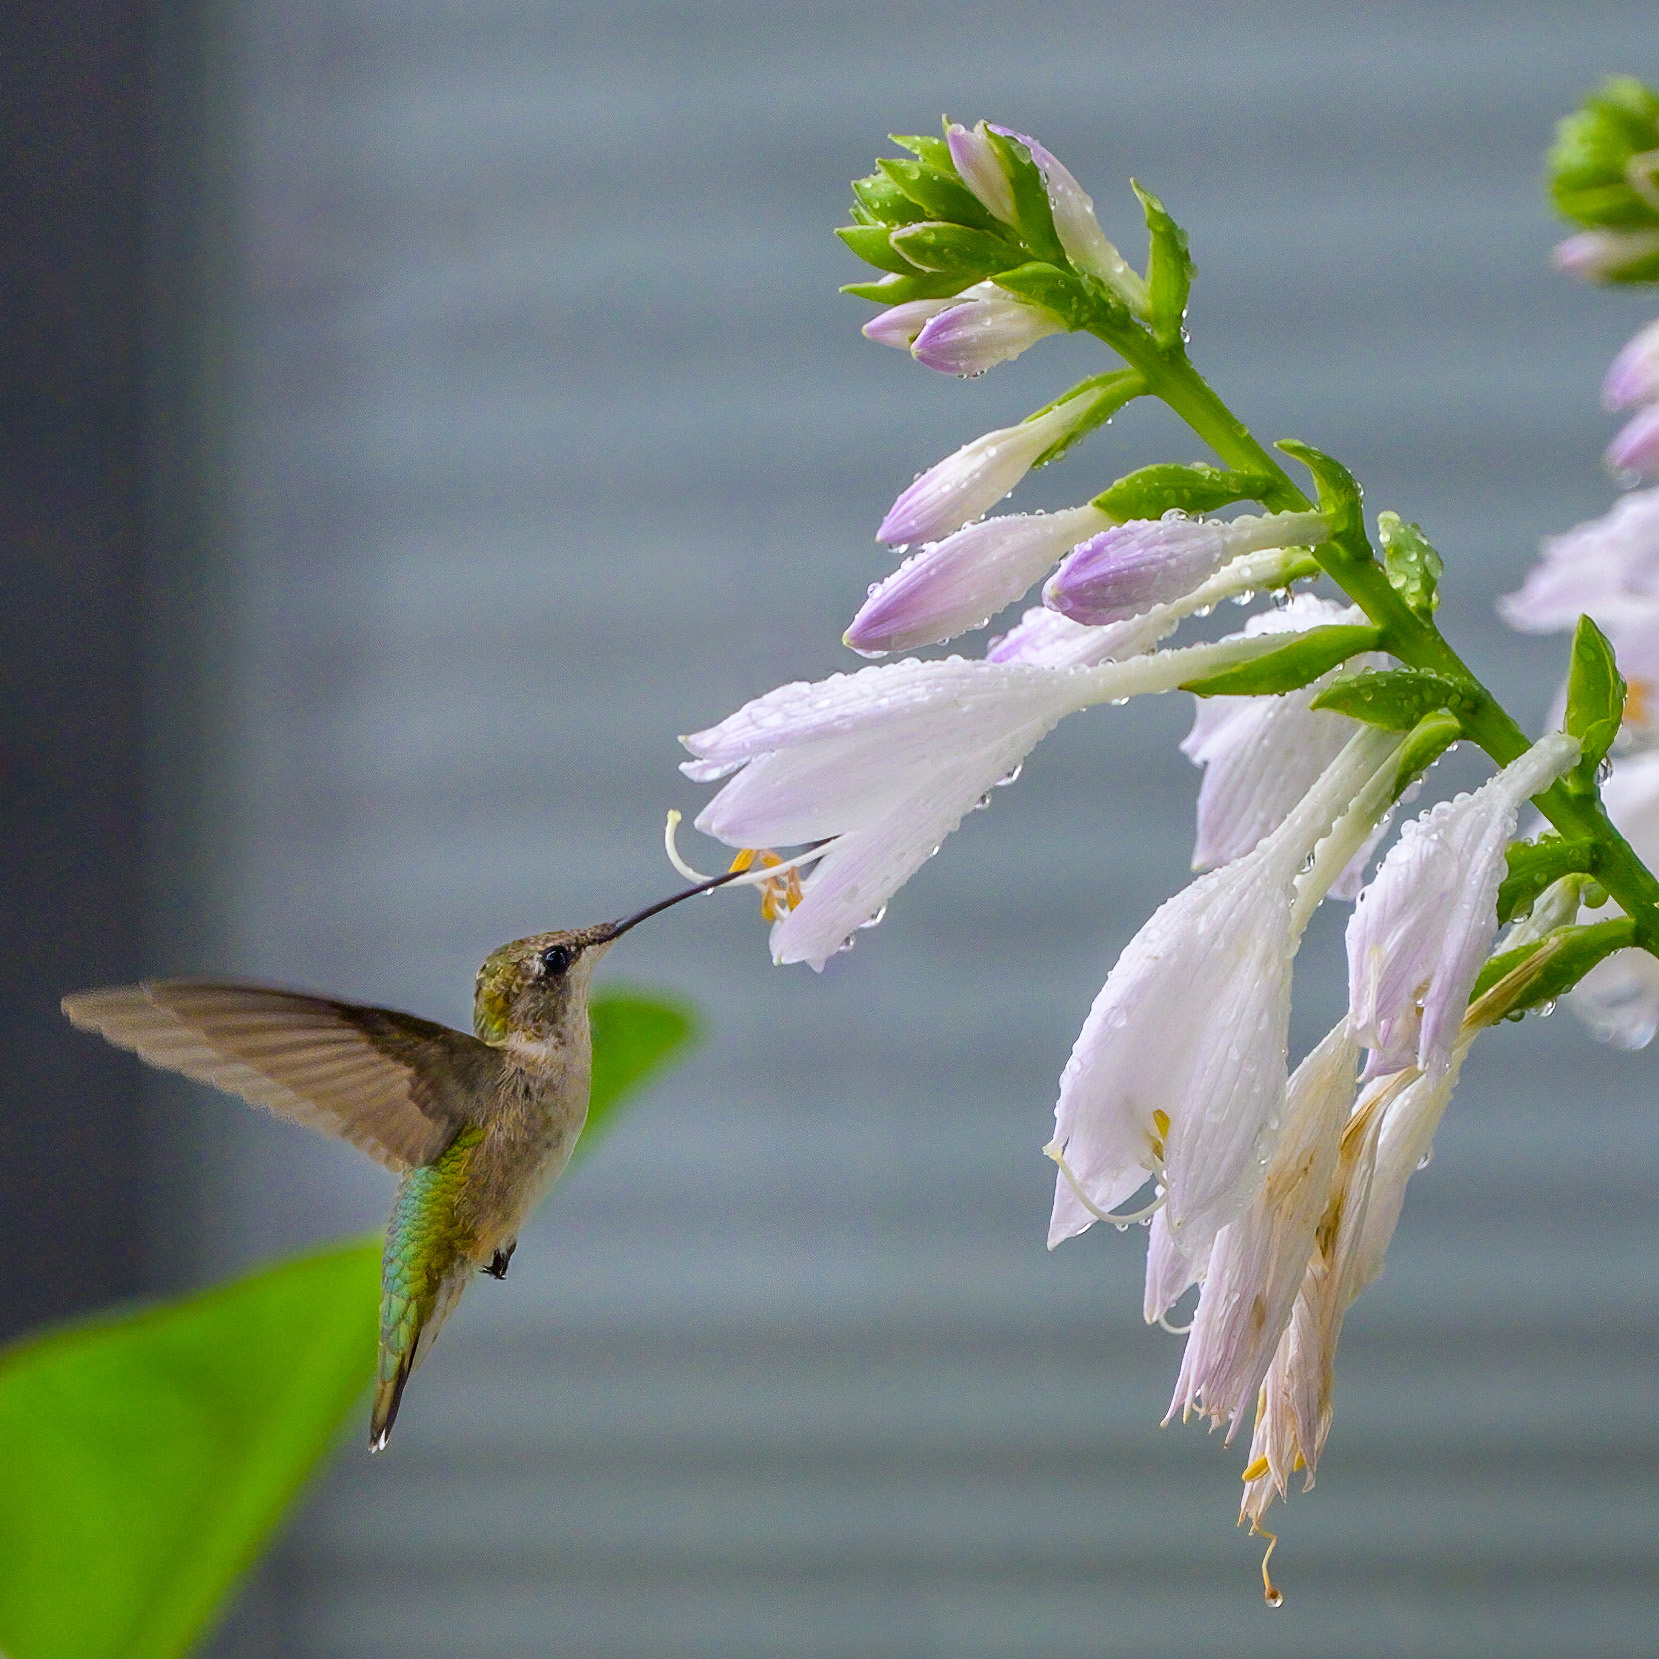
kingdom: Animalia
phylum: Chordata
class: Aves
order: Apodiformes
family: Trochilidae
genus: Archilochus
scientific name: Archilochus colubris
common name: Ruby-throated hummingbird
